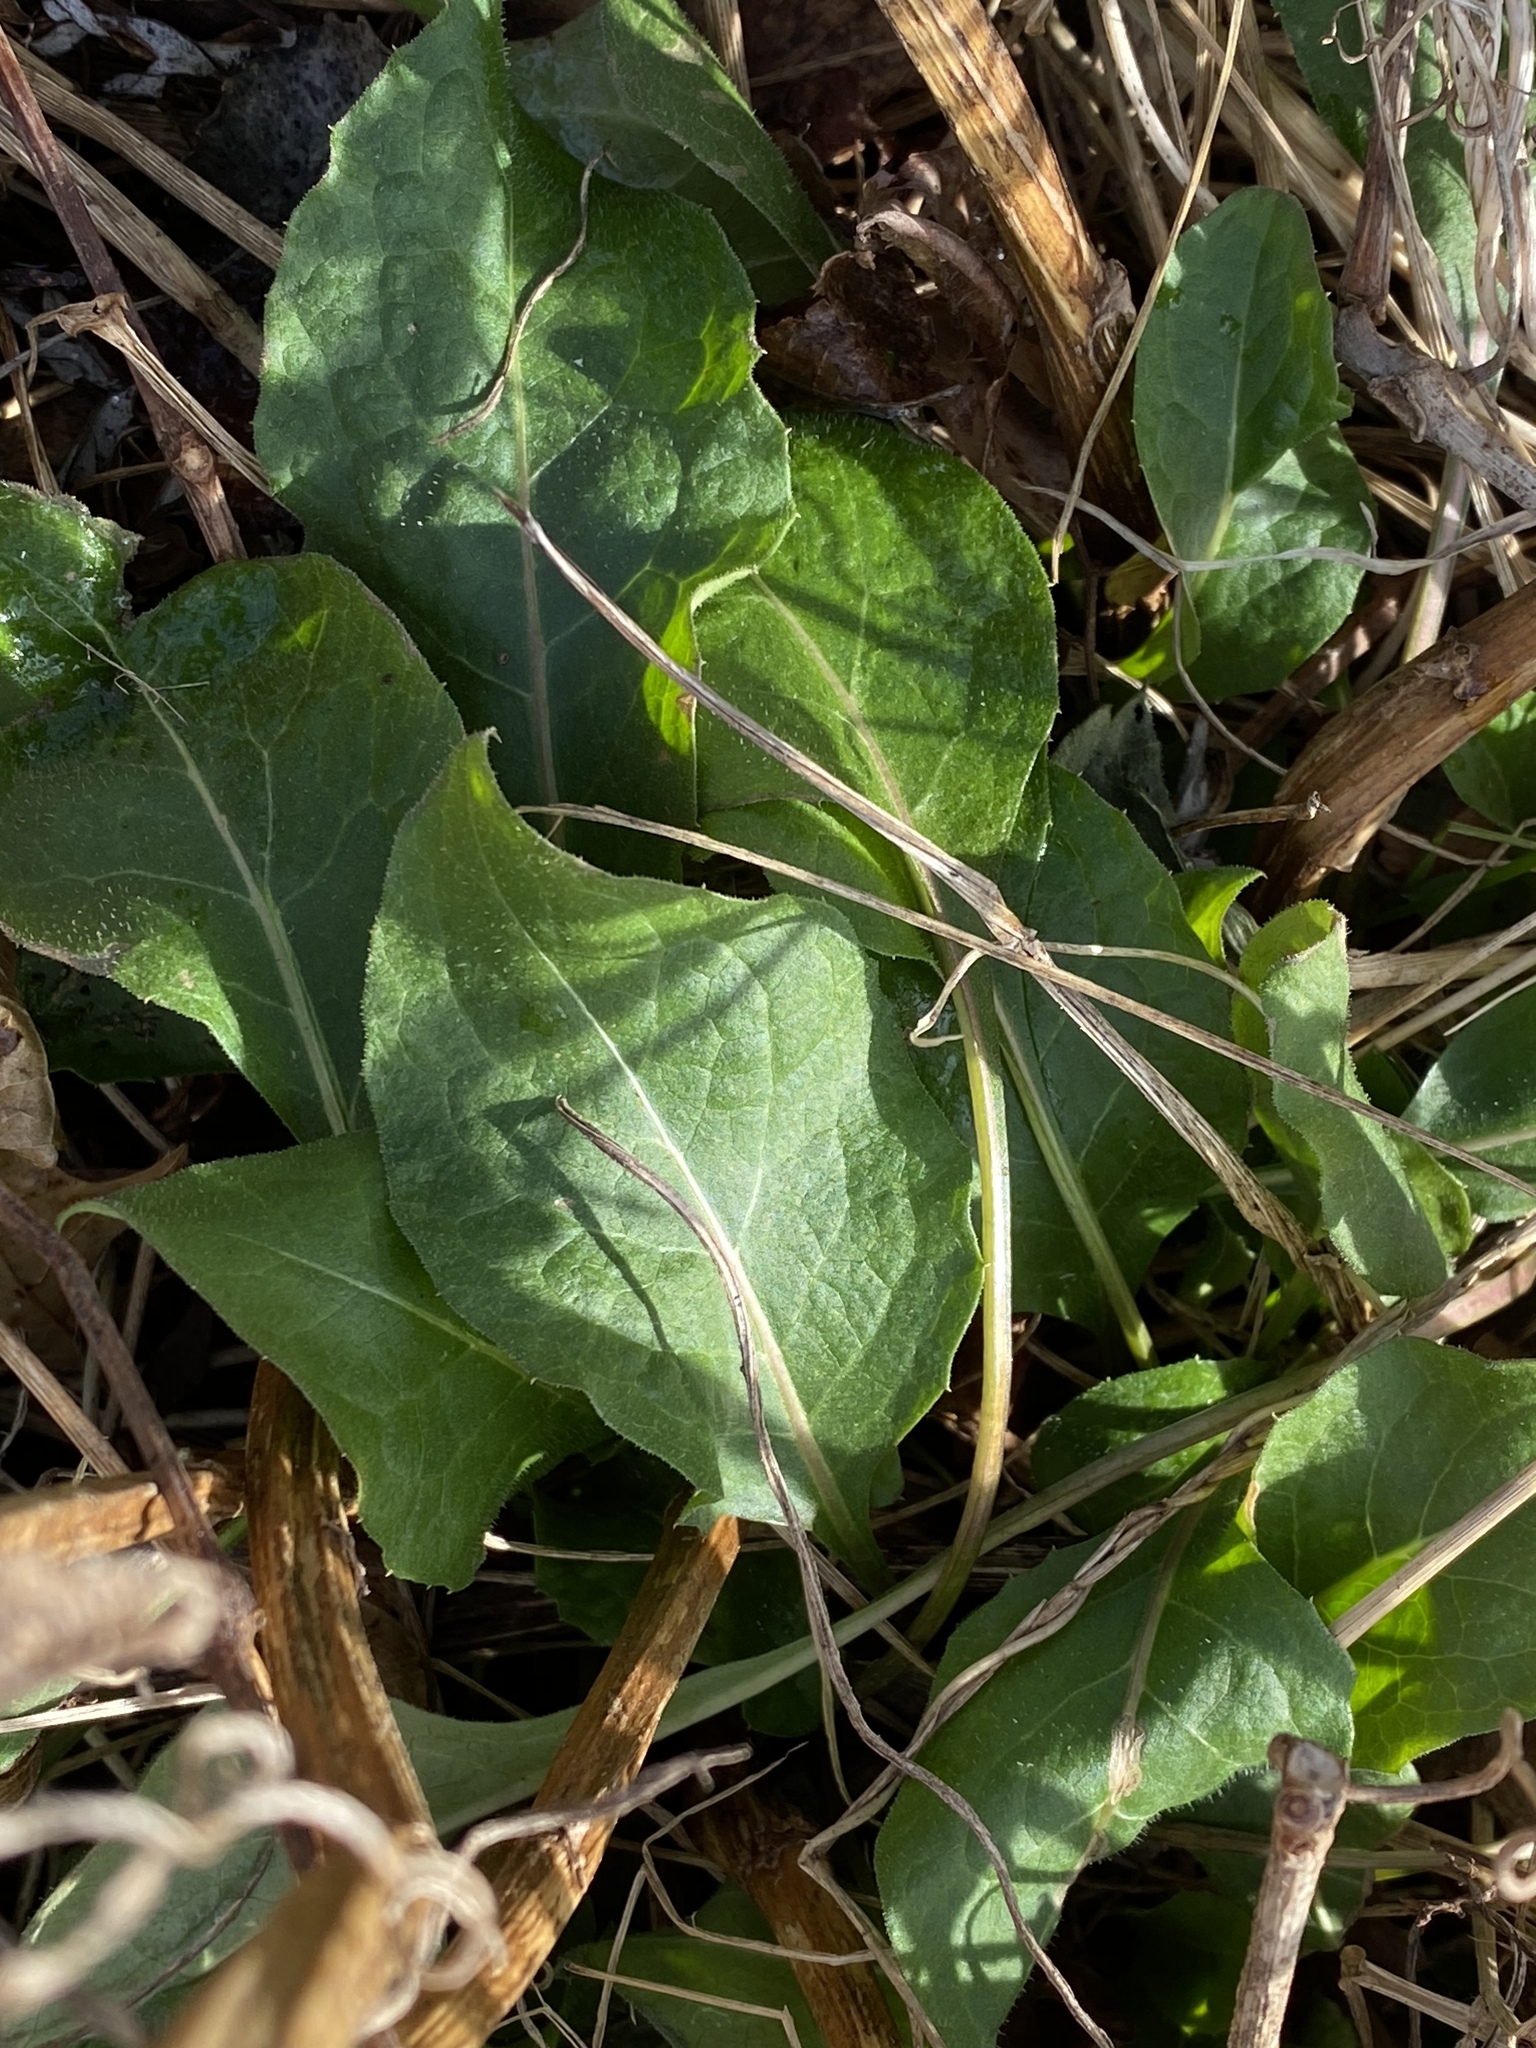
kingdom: Plantae
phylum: Tracheophyta
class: Magnoliopsida
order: Asterales
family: Asteraceae
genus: Centaurea
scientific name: Centaurea nigrescens
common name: Tyrol knapweed
